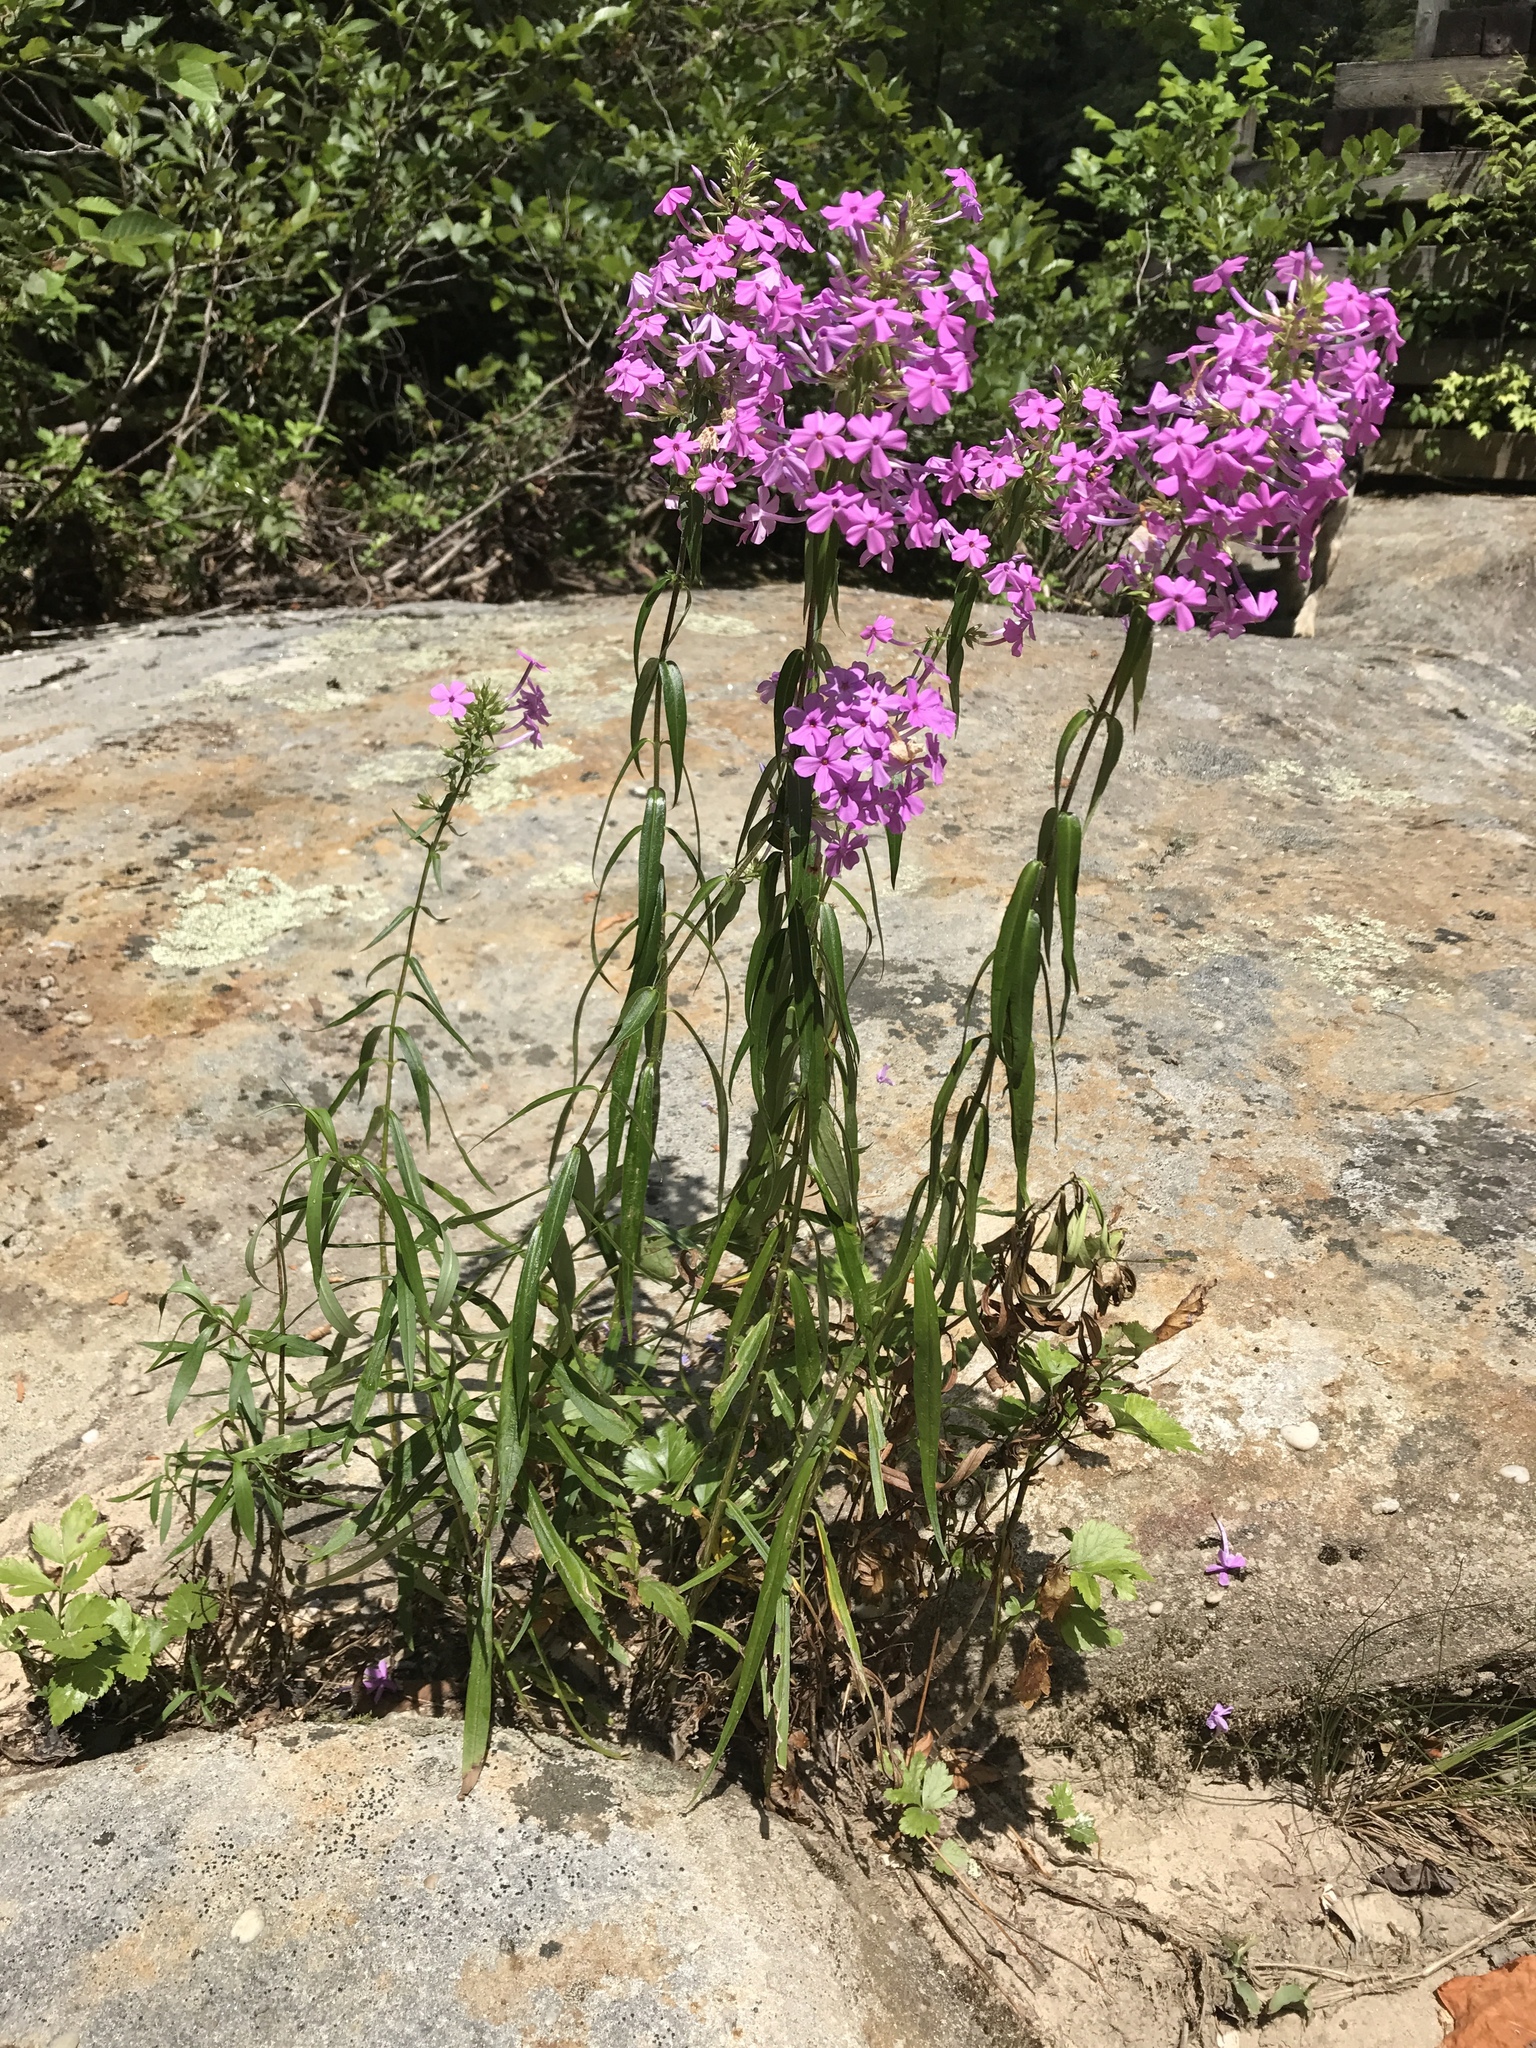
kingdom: Plantae
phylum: Tracheophyta
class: Magnoliopsida
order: Ericales
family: Polemoniaceae
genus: Phlox
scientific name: Phlox maculata
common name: Meadow phlox
